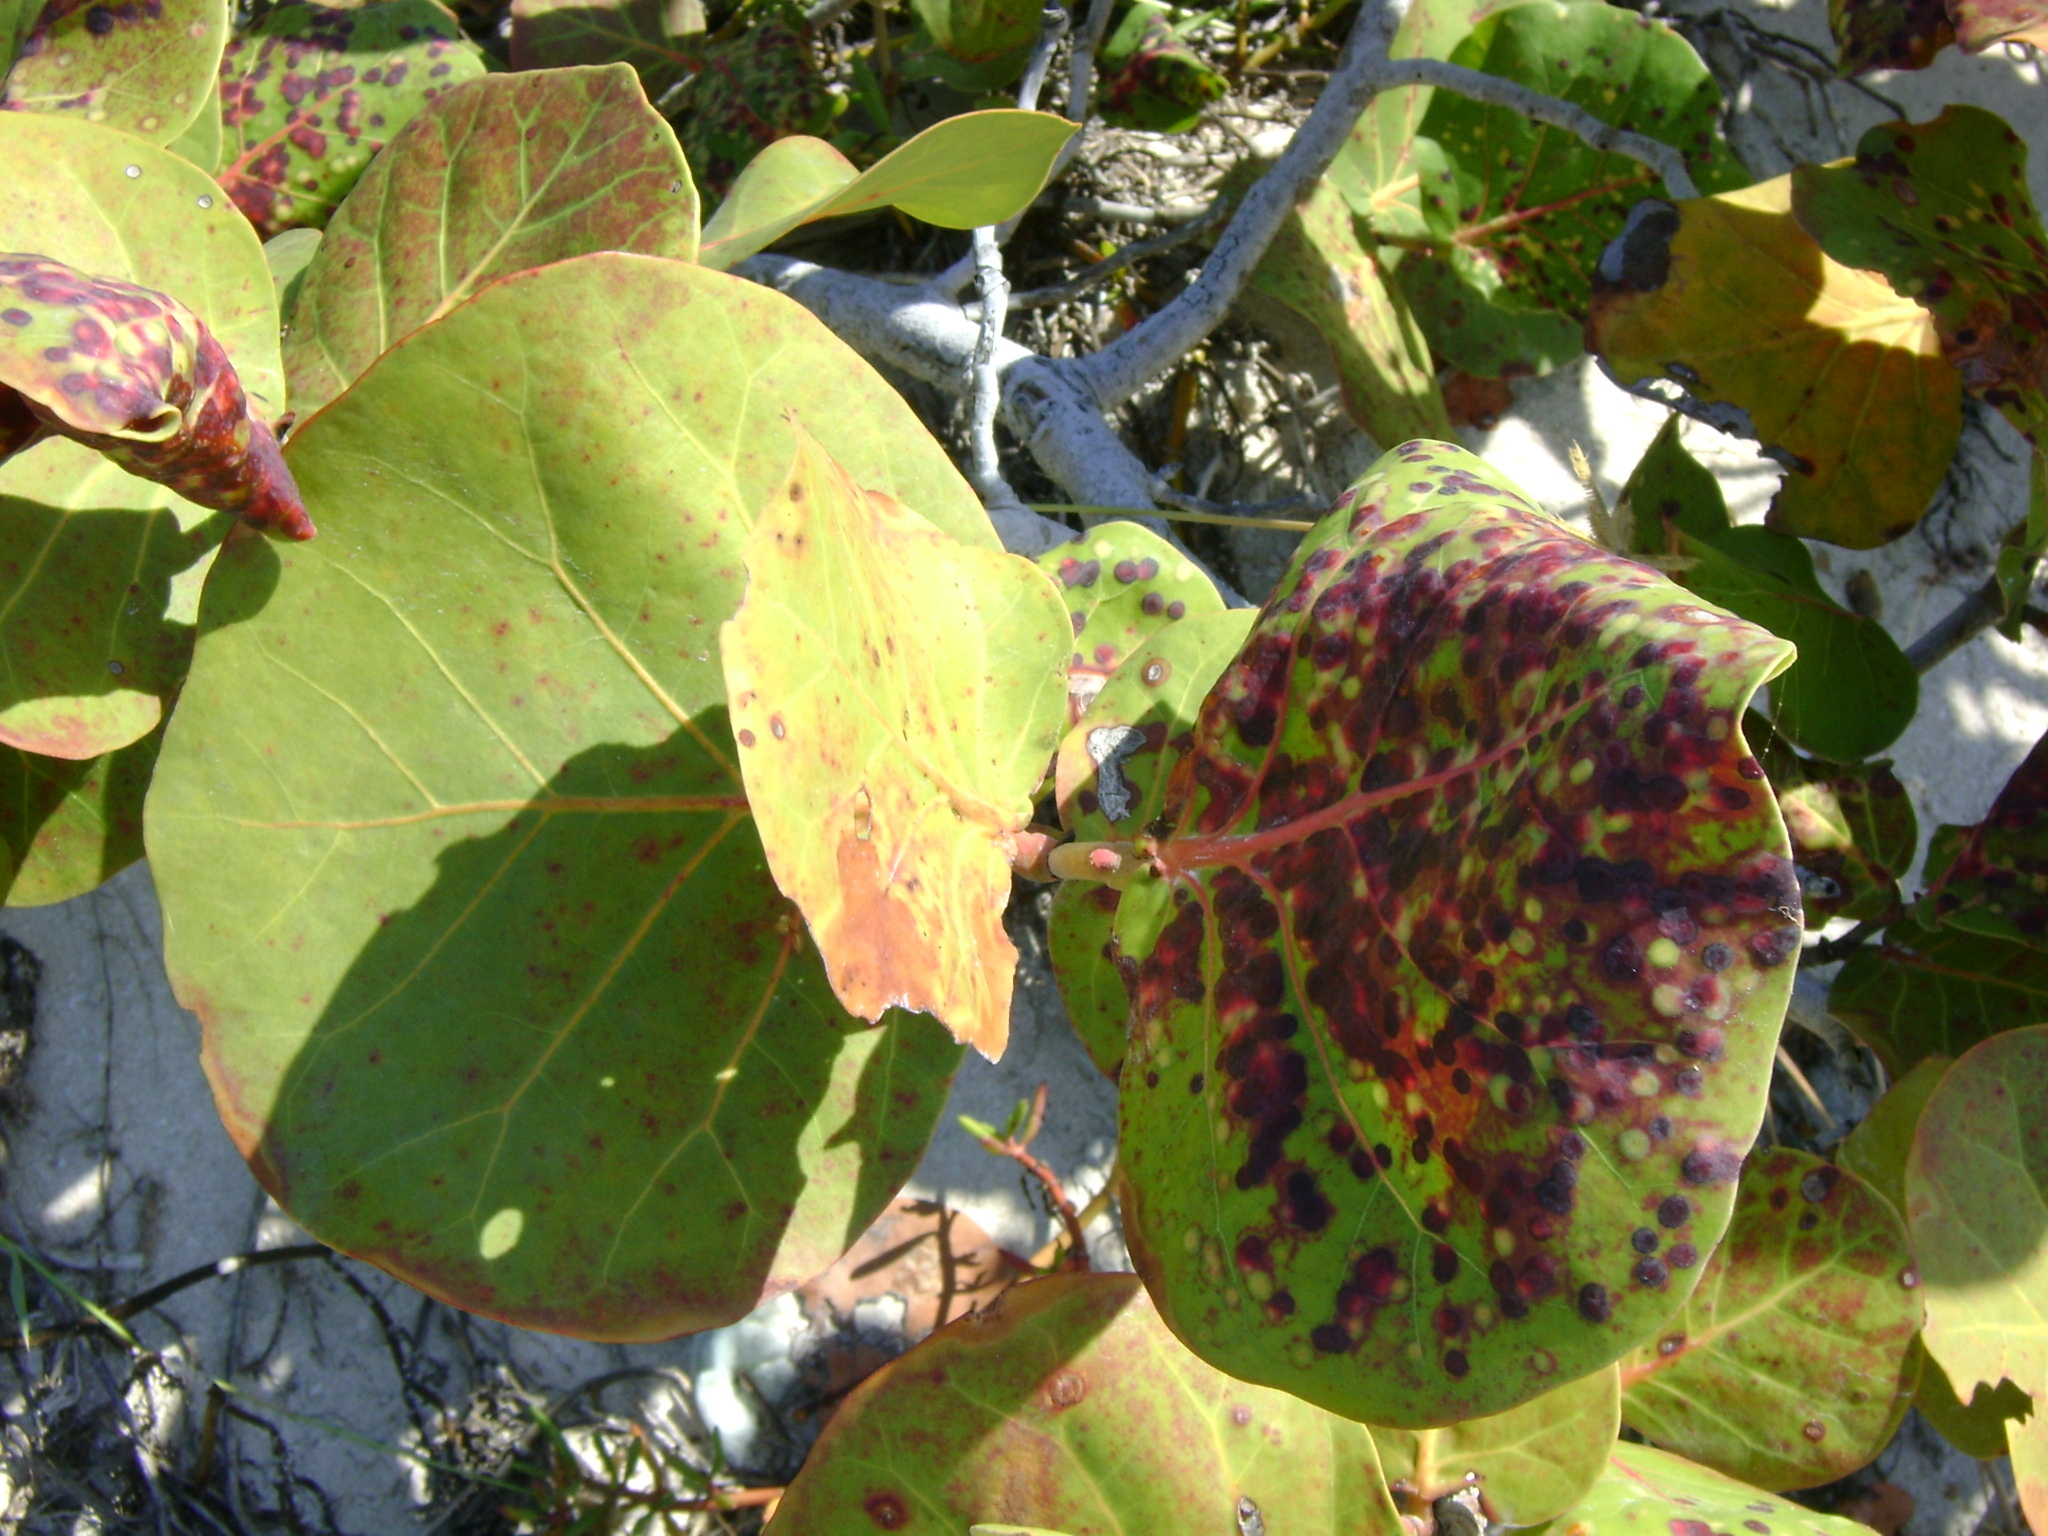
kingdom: Plantae
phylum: Tracheophyta
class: Magnoliopsida
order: Caryophyllales
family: Polygonaceae
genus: Coccoloba
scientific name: Coccoloba uvifera
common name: Seagrape
